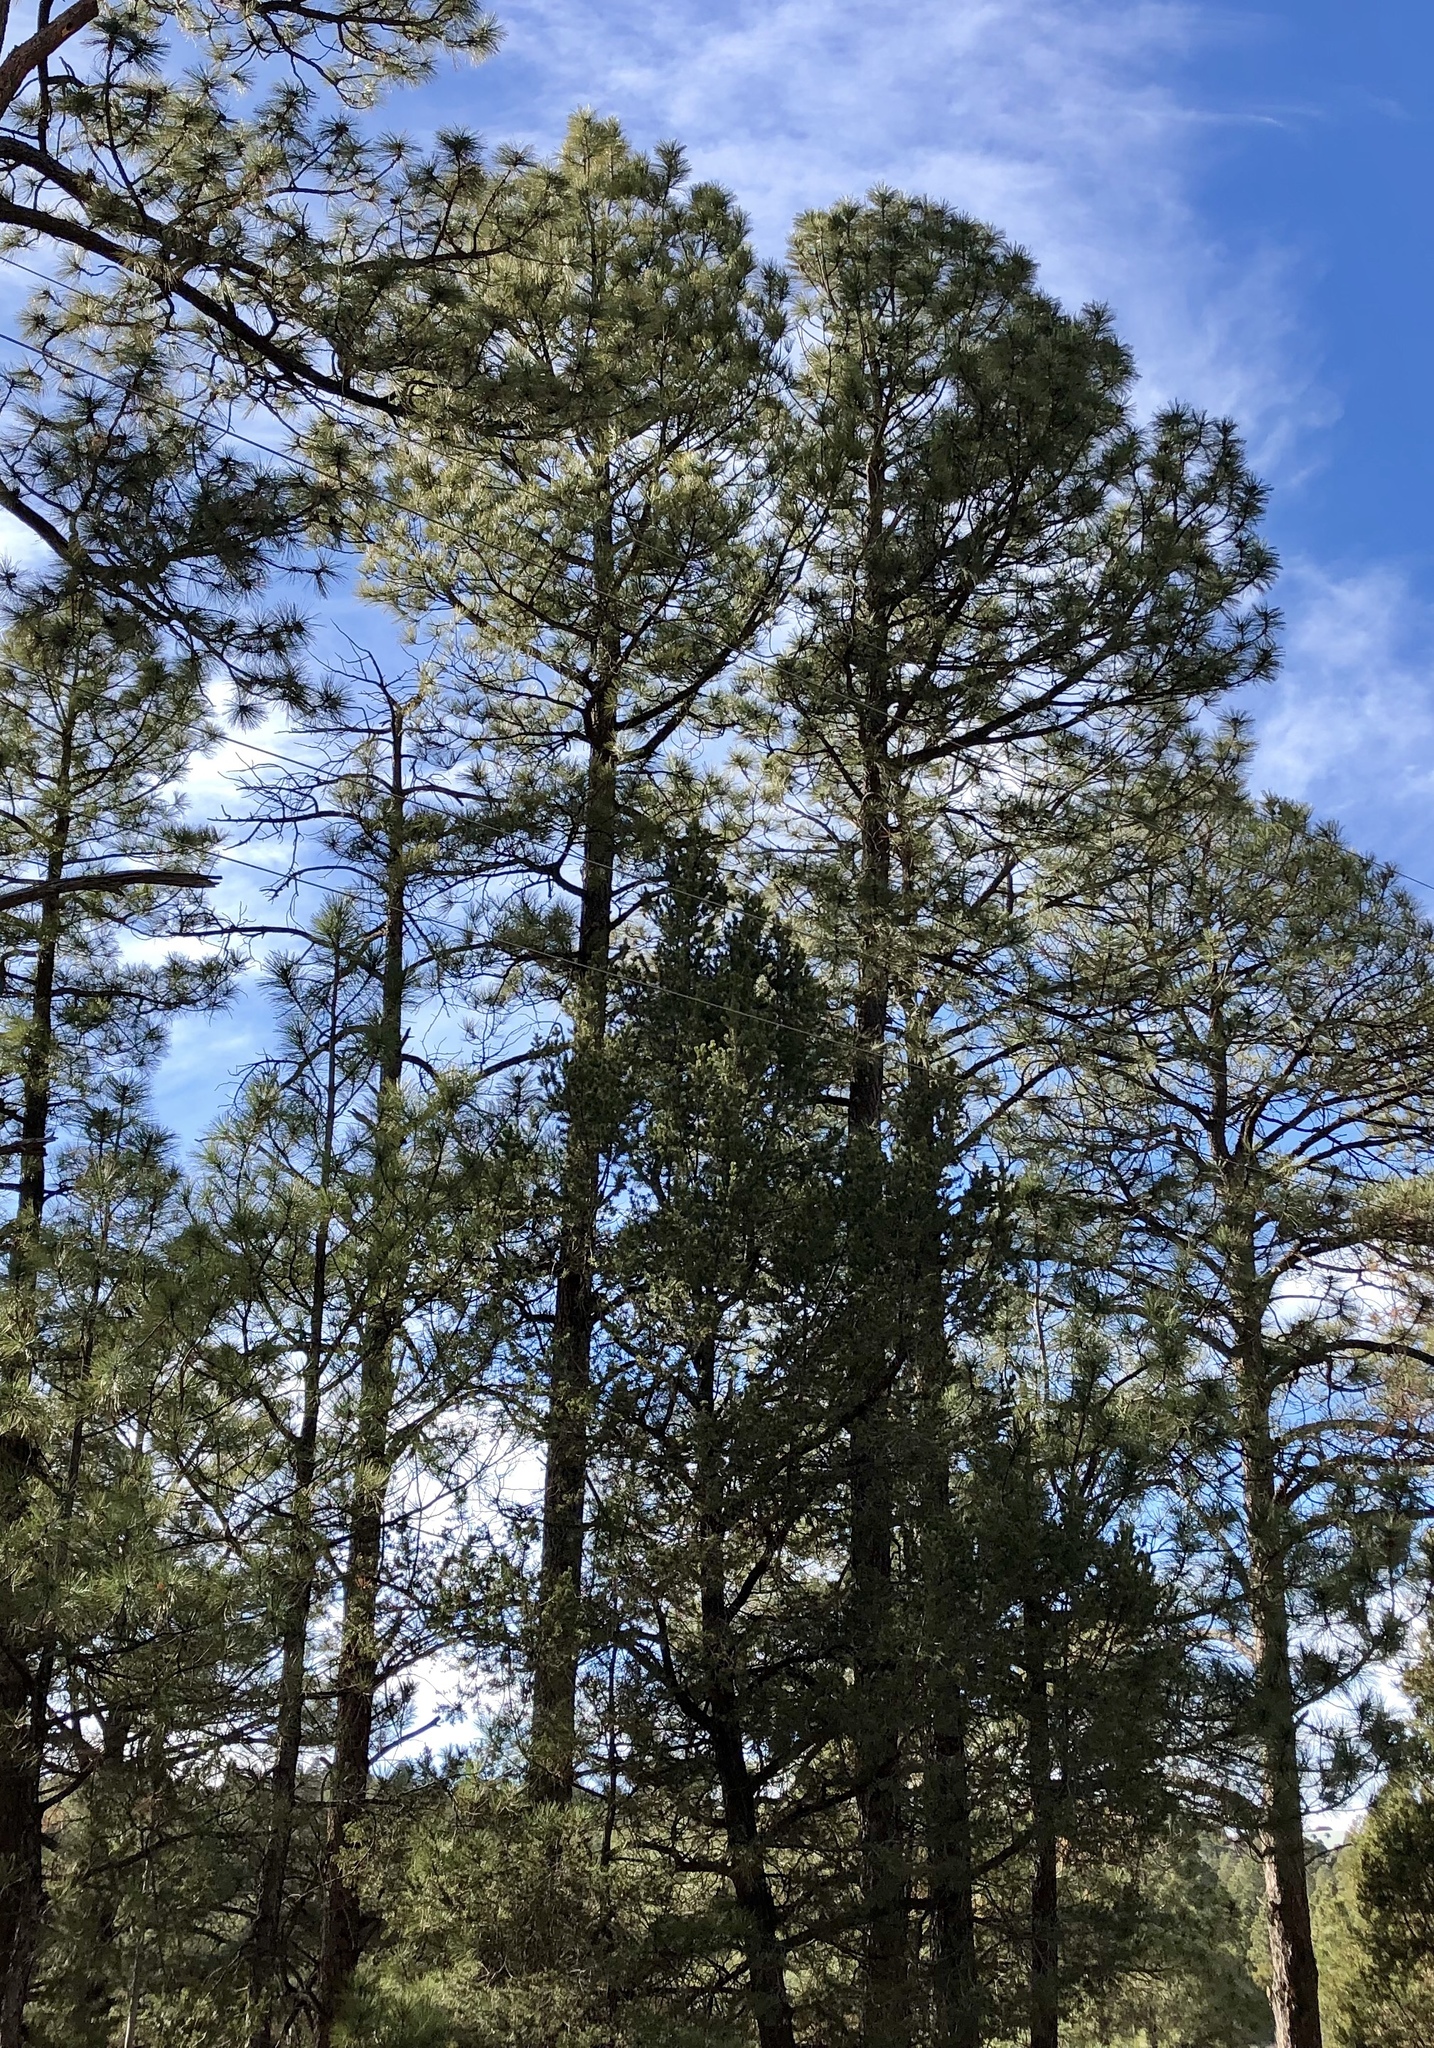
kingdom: Plantae
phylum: Tracheophyta
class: Pinopsida
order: Pinales
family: Pinaceae
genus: Pinus
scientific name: Pinus ponderosa
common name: Western yellow-pine
